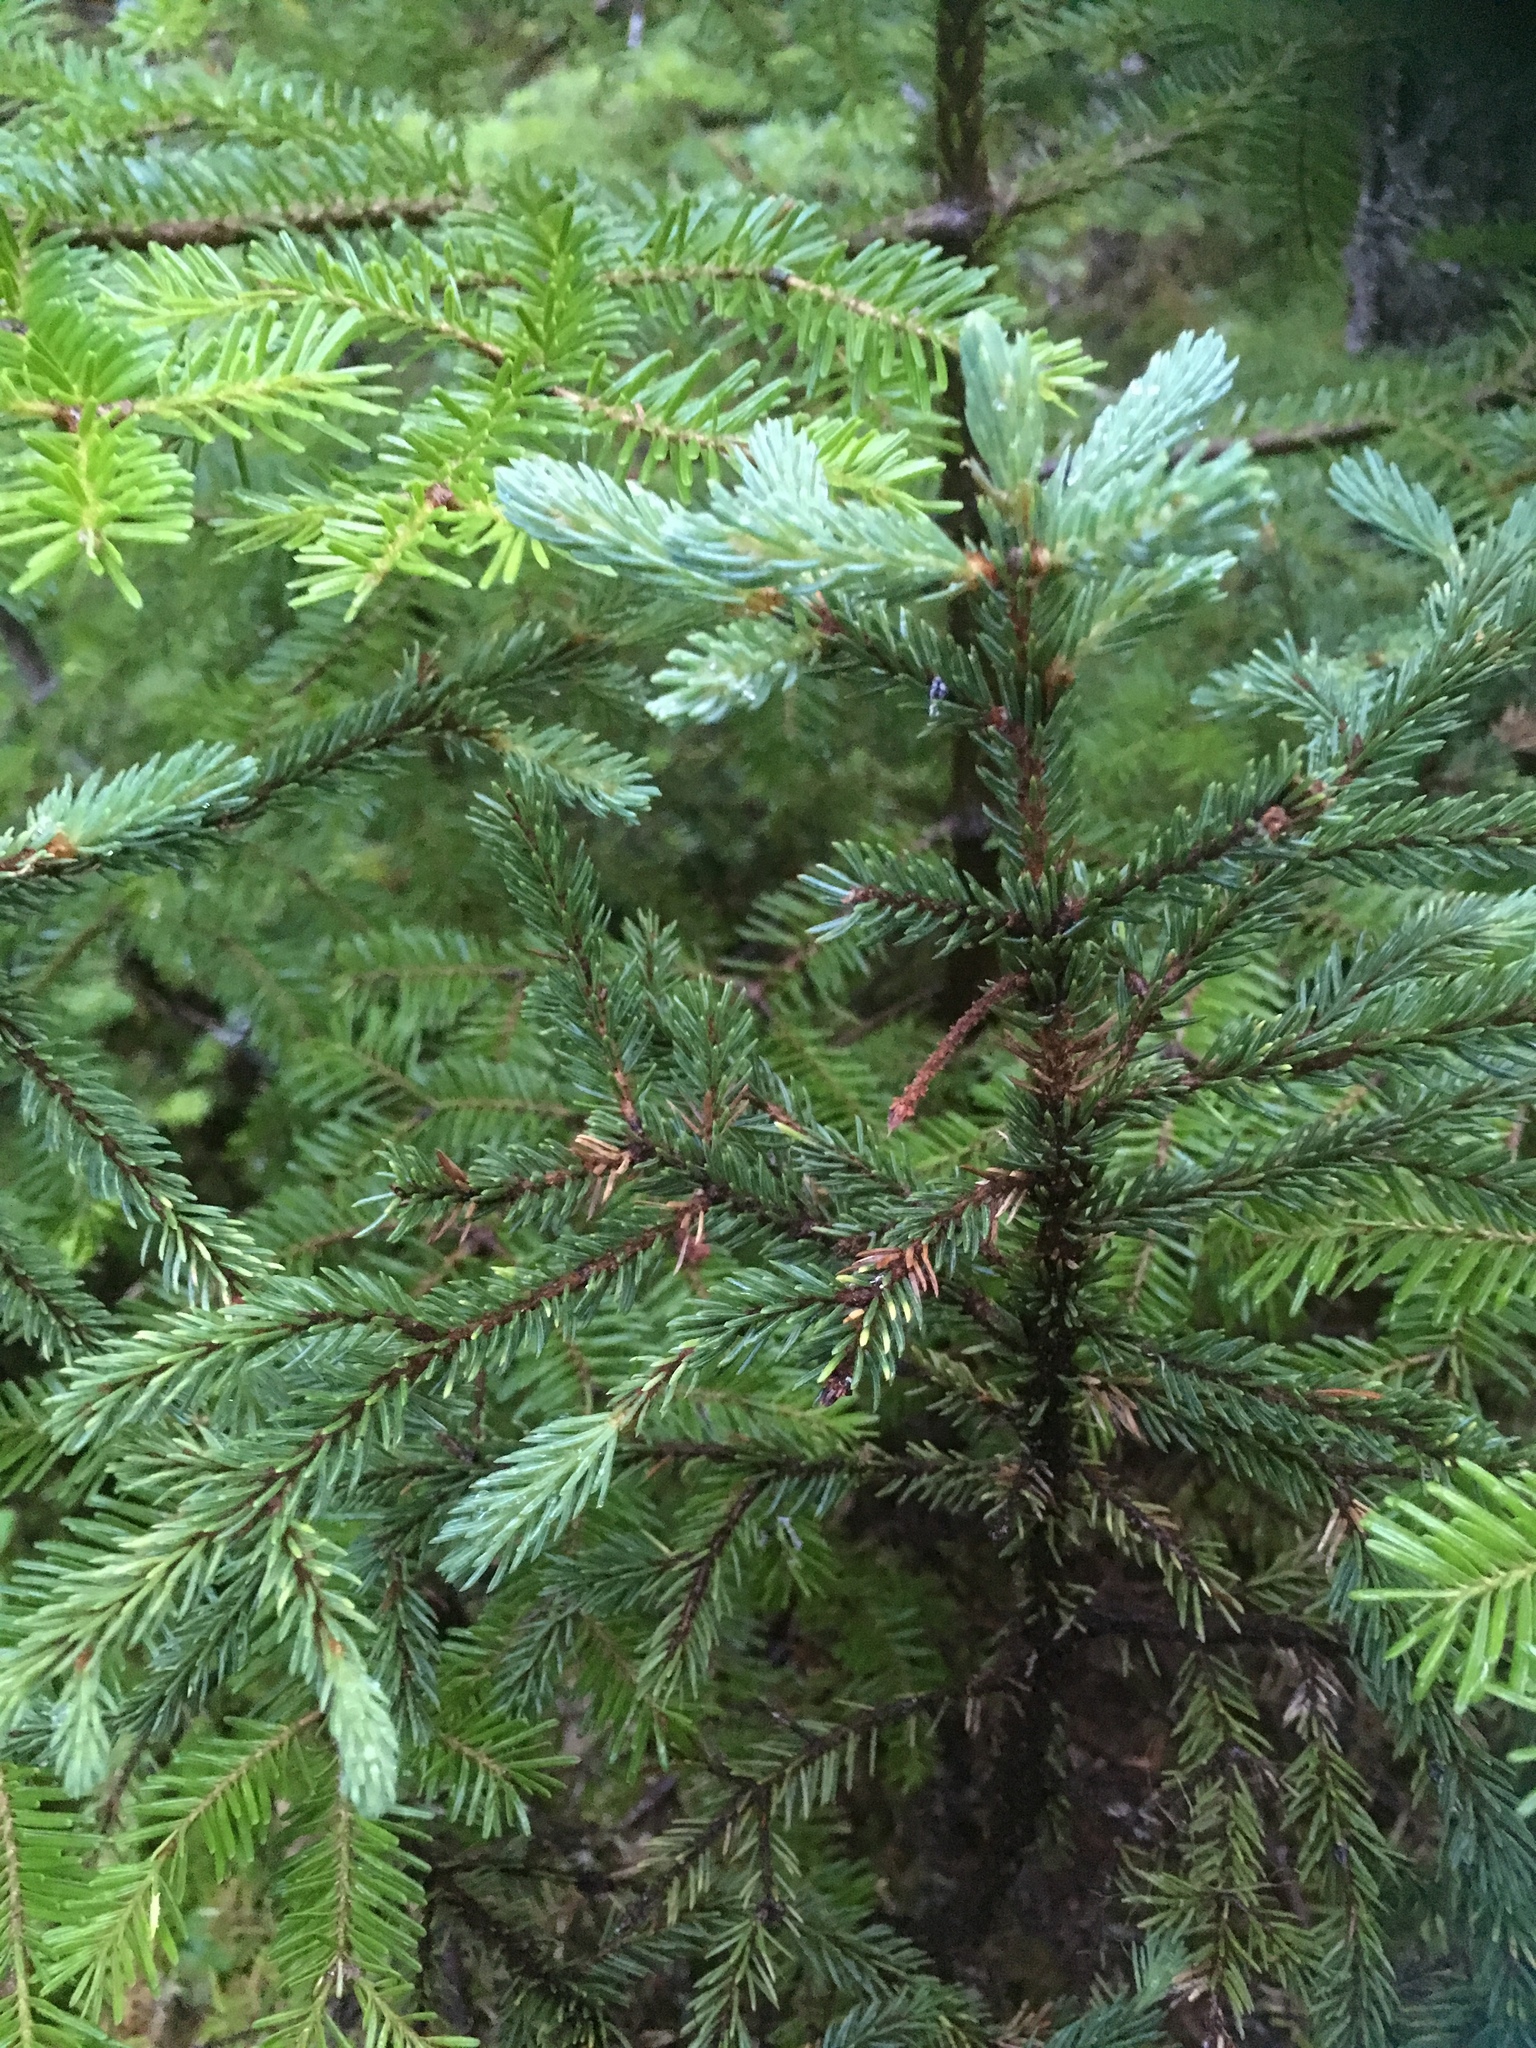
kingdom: Plantae
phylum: Tracheophyta
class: Pinopsida
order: Pinales
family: Pinaceae
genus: Picea
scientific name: Picea mariana
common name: Black spruce
